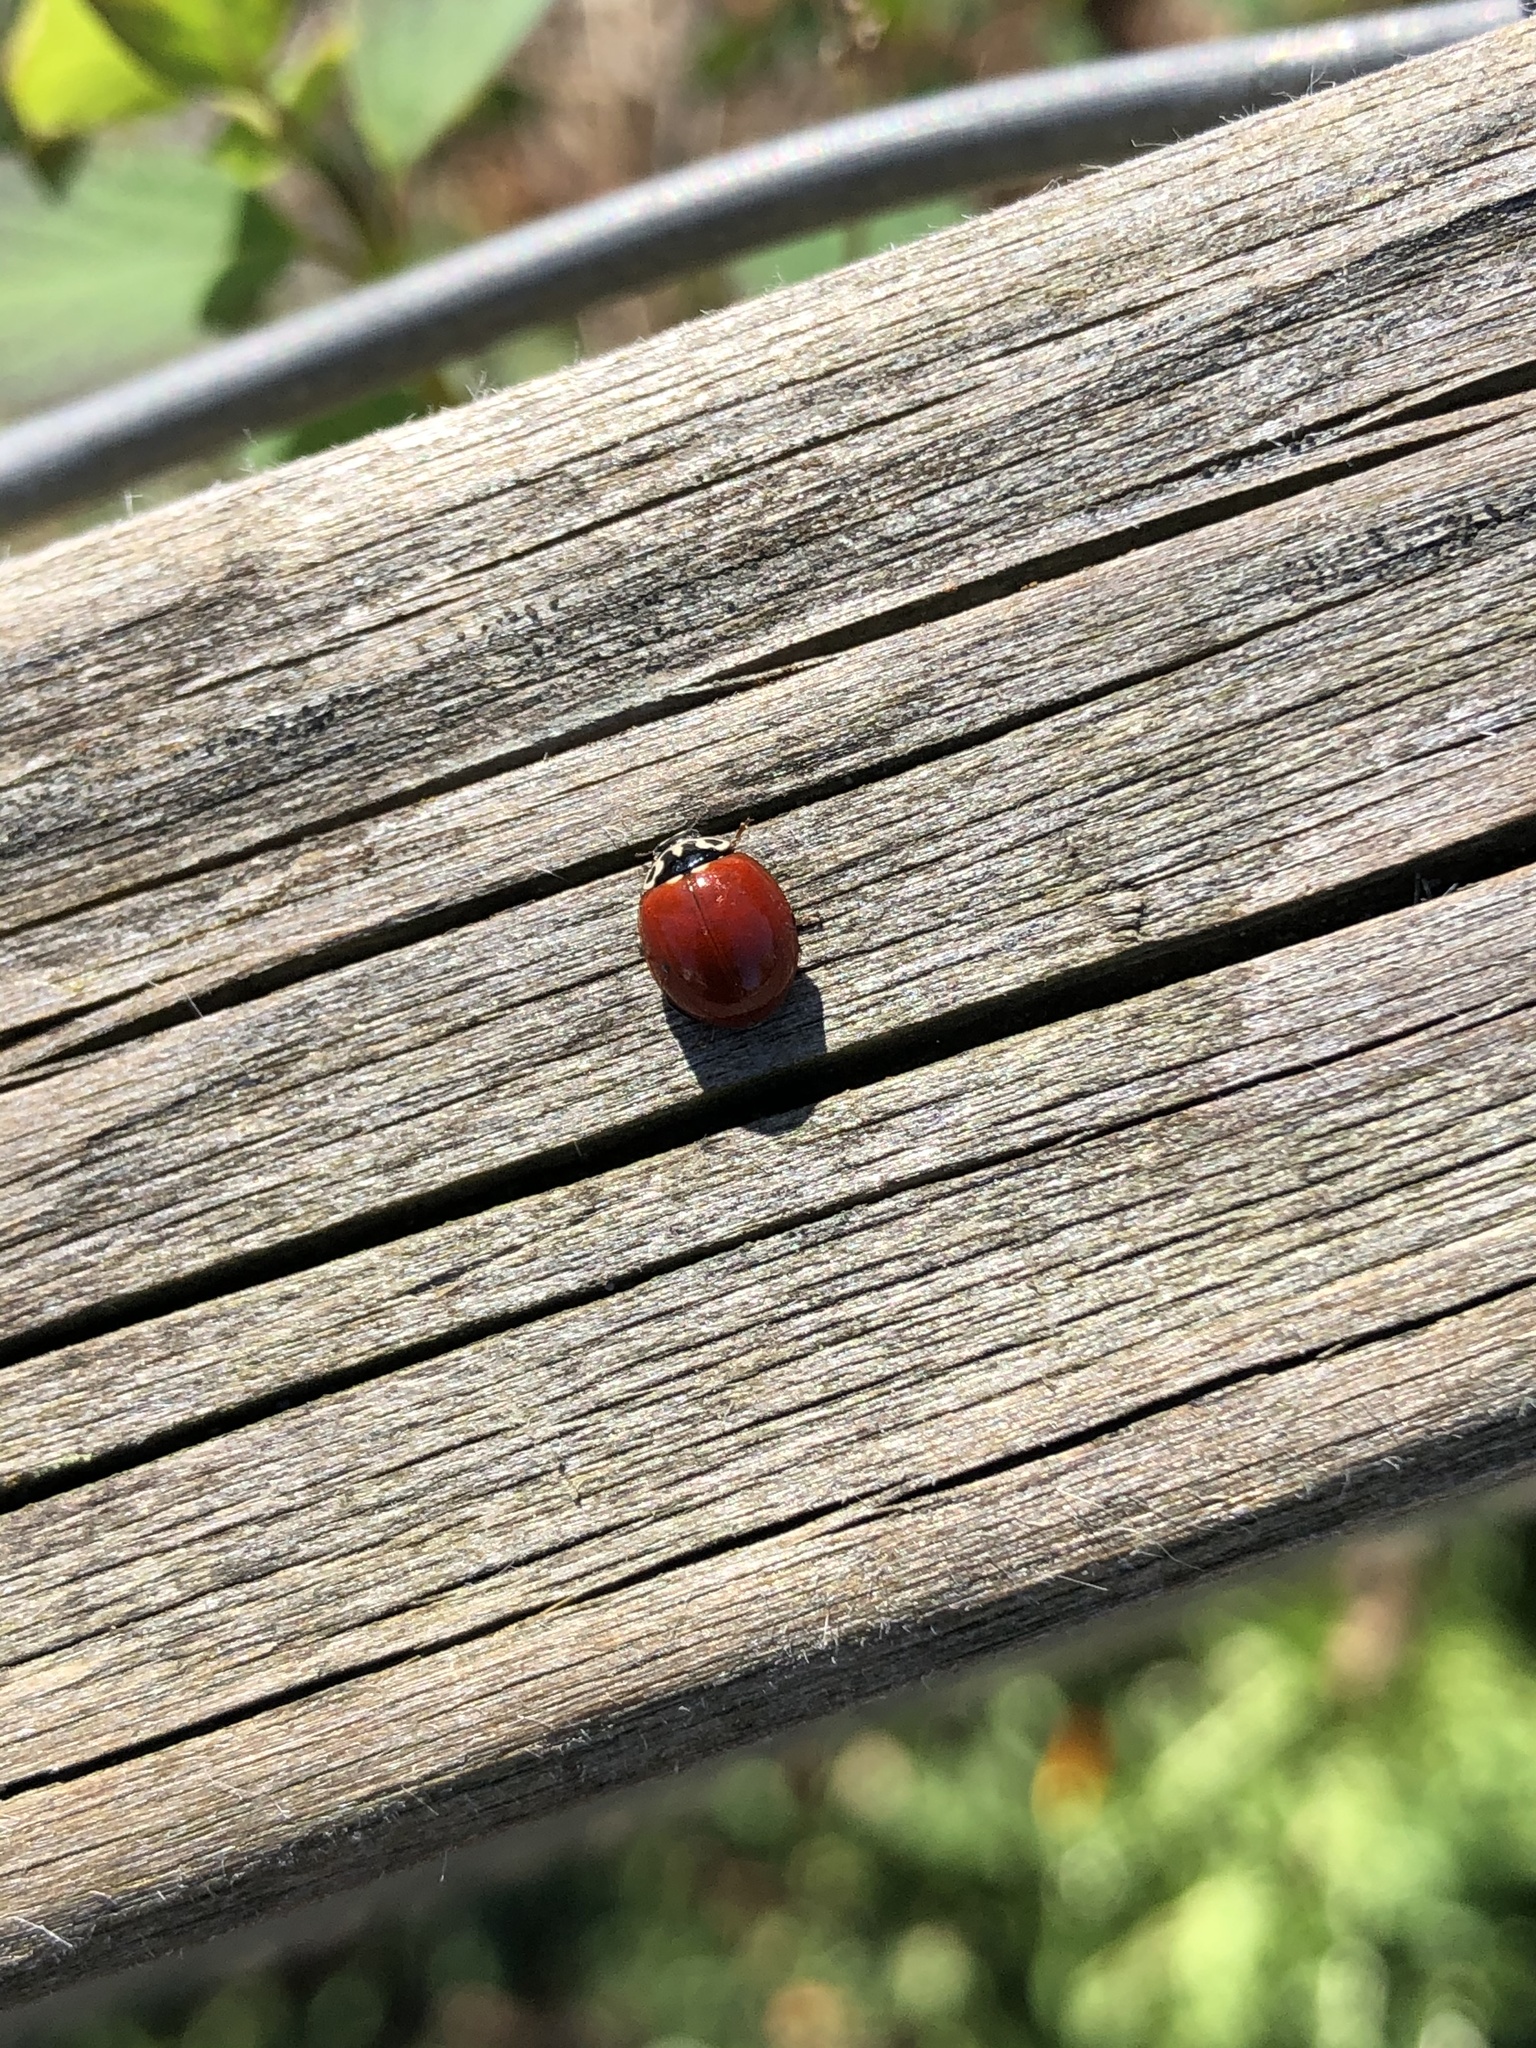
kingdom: Animalia
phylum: Arthropoda
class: Insecta
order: Coleoptera
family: Coccinellidae
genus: Cycloneda
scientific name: Cycloneda polita
